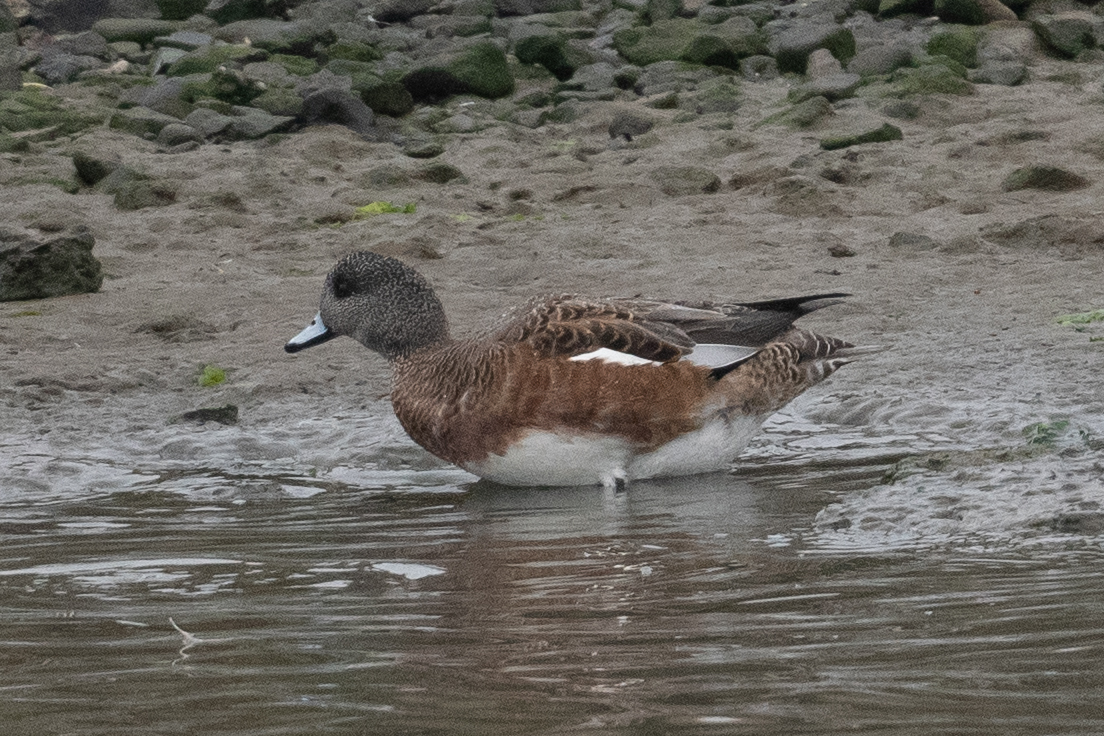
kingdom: Animalia
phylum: Chordata
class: Aves
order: Anseriformes
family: Anatidae
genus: Mareca
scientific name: Mareca americana
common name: American wigeon
